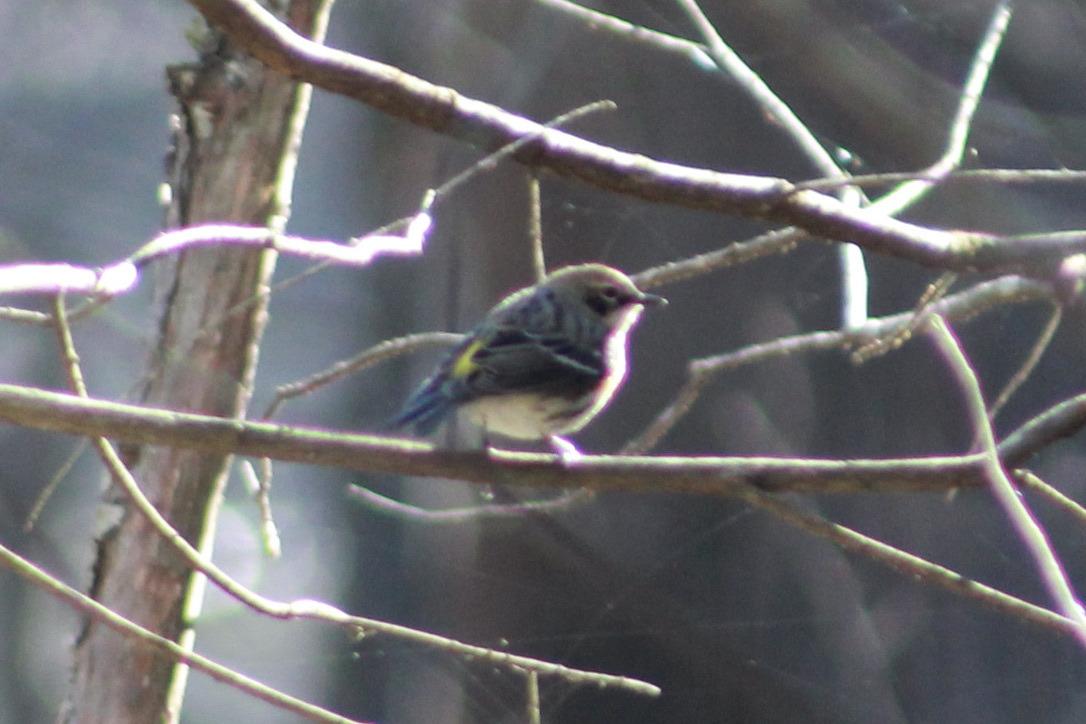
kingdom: Animalia
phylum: Chordata
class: Aves
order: Passeriformes
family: Parulidae
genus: Setophaga
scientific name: Setophaga coronata
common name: Myrtle warbler
